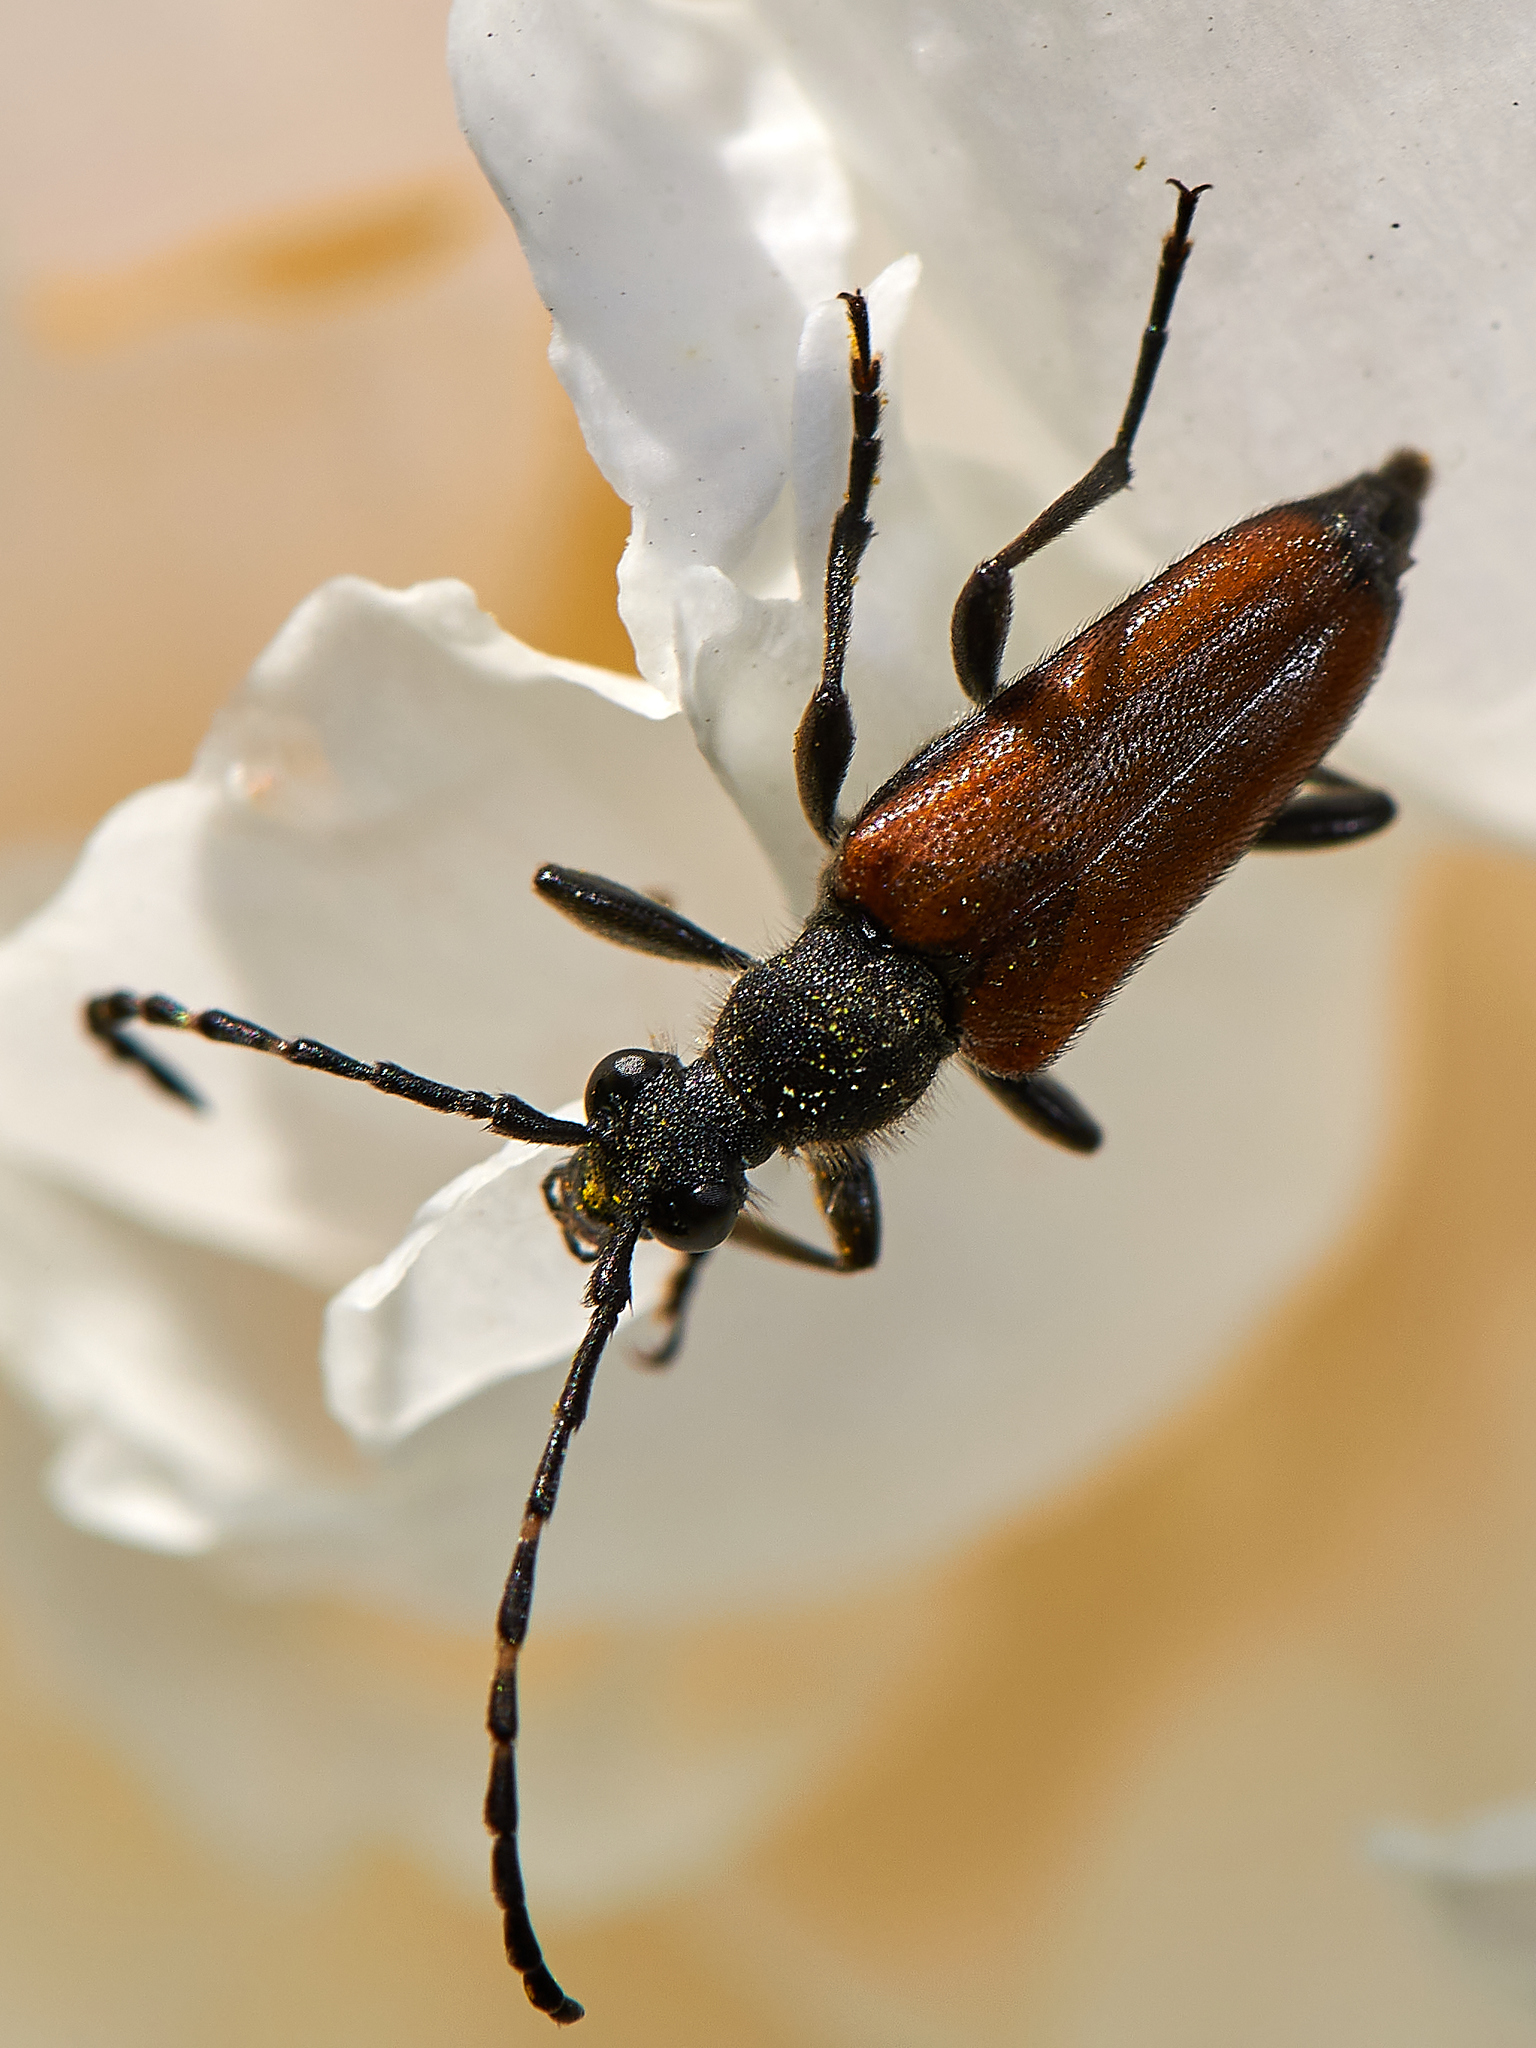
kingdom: Animalia
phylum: Arthropoda
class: Insecta
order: Coleoptera
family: Cerambycidae
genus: Paracorymbia
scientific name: Paracorymbia maculicornis
